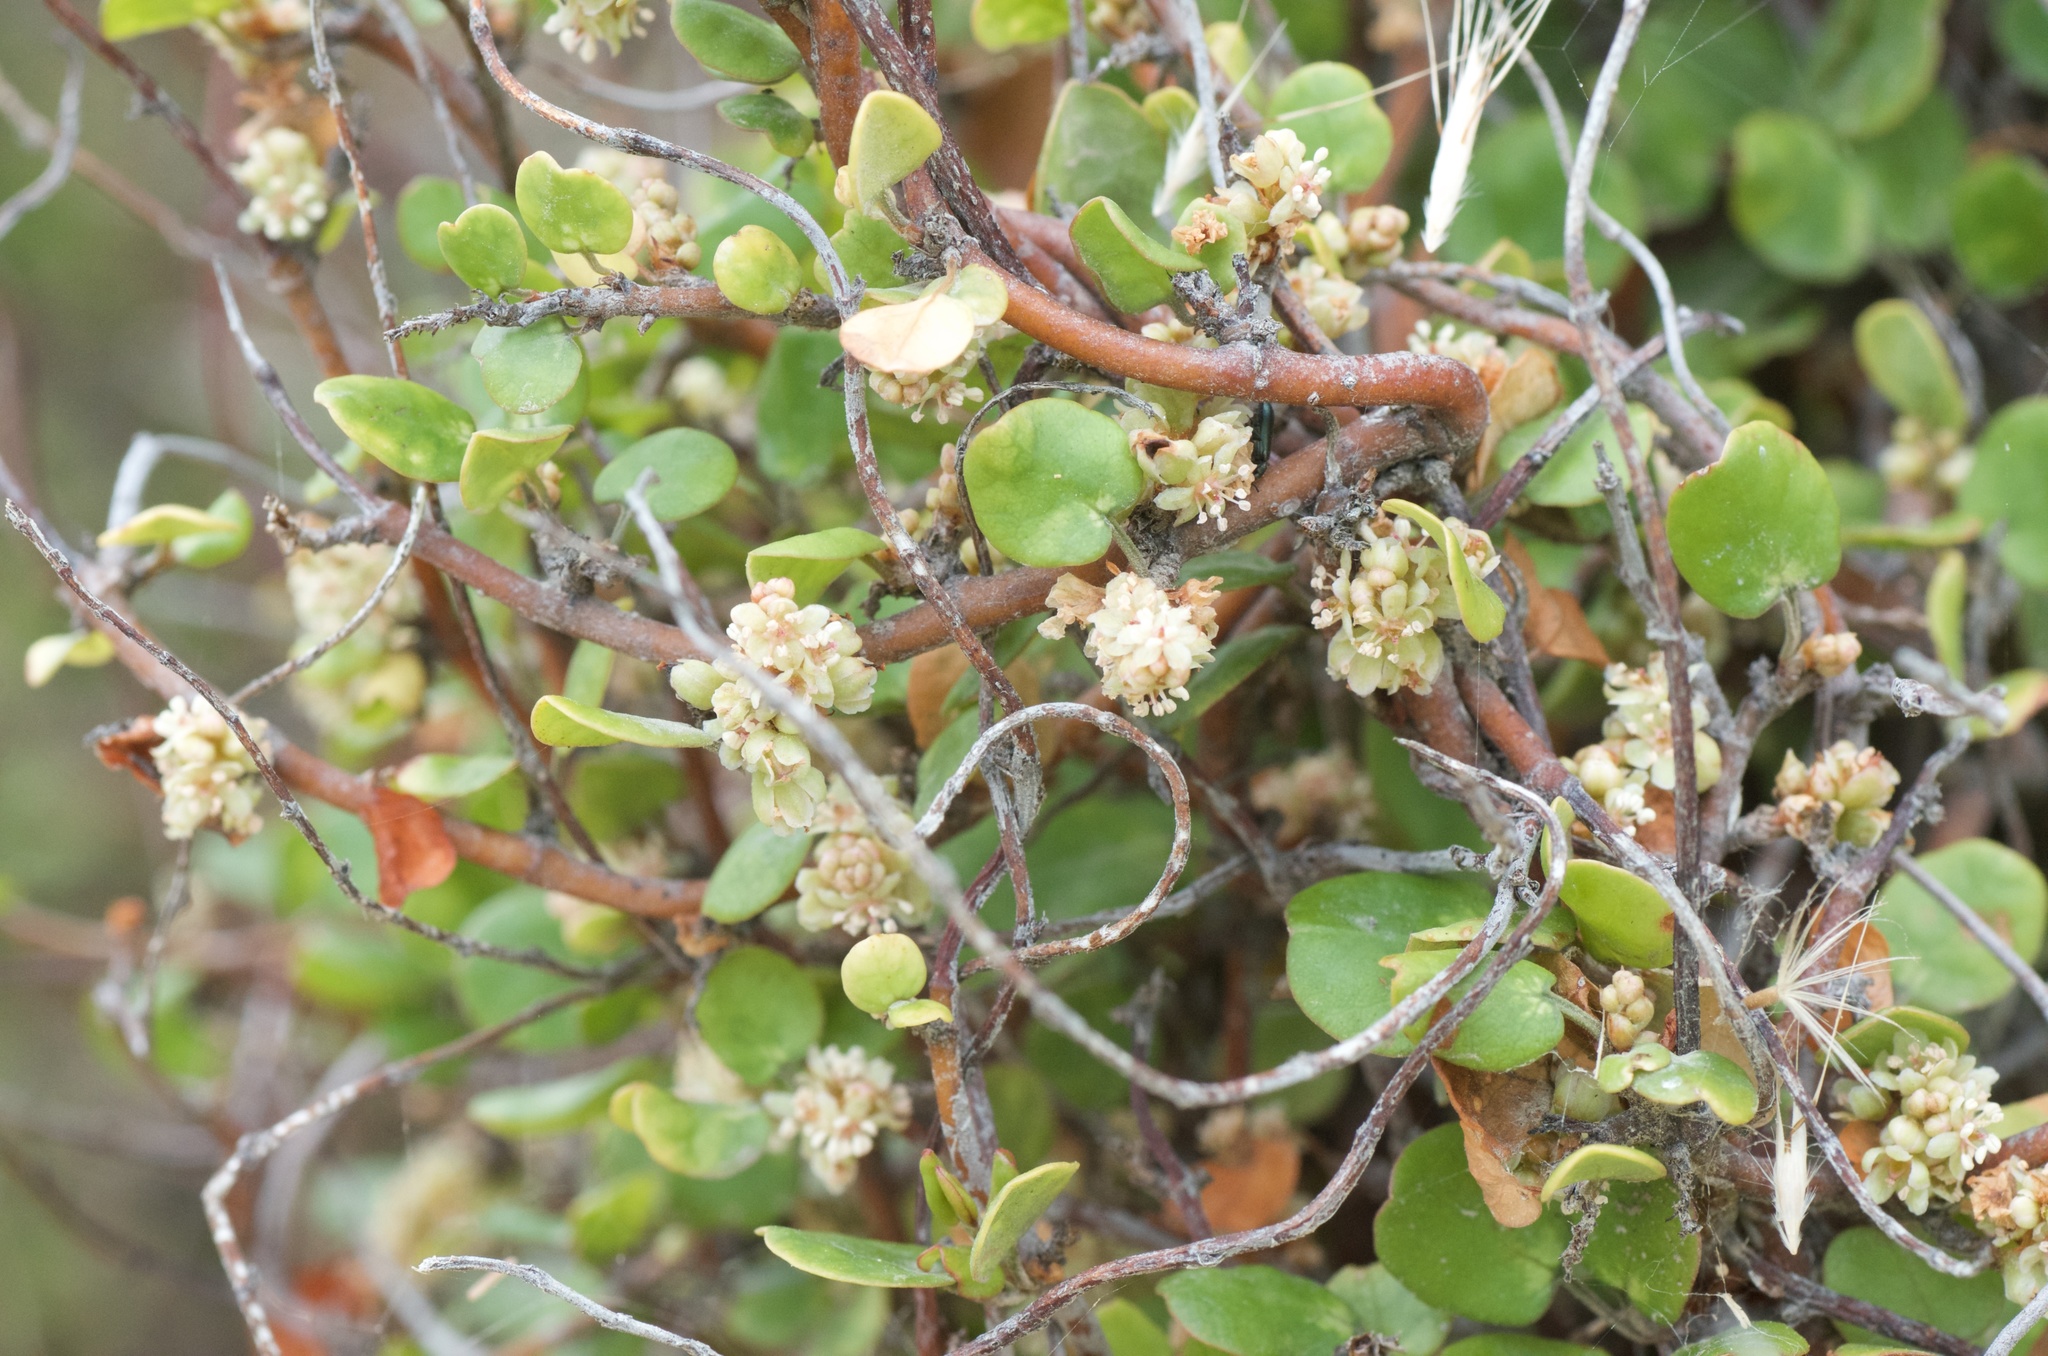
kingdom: Plantae
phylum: Tracheophyta
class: Magnoliopsida
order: Caryophyllales
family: Polygonaceae
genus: Muehlenbeckia
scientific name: Muehlenbeckia complexa
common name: Wireplant
